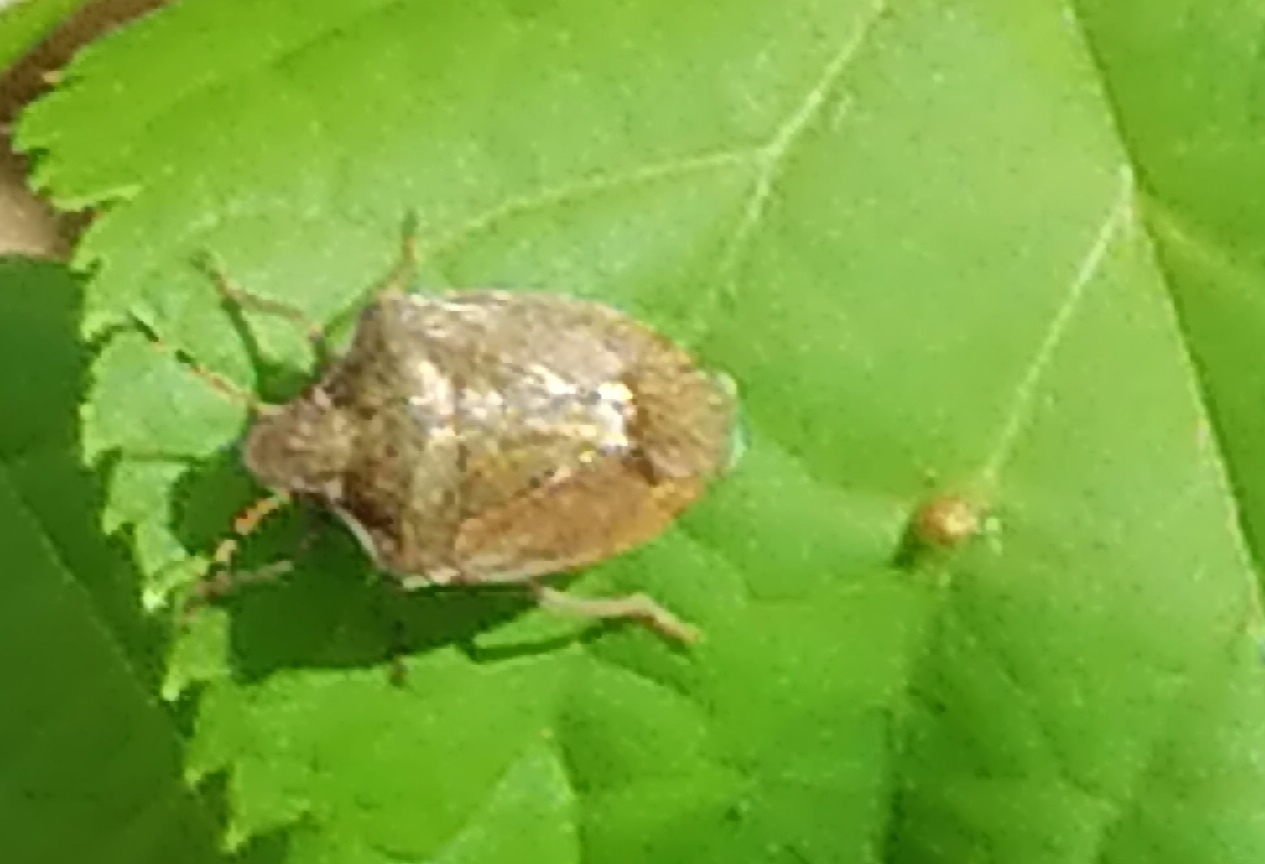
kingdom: Animalia
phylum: Arthropoda
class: Insecta
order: Hemiptera
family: Pentatomidae
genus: Holcostethus
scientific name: Holcostethus strictus
